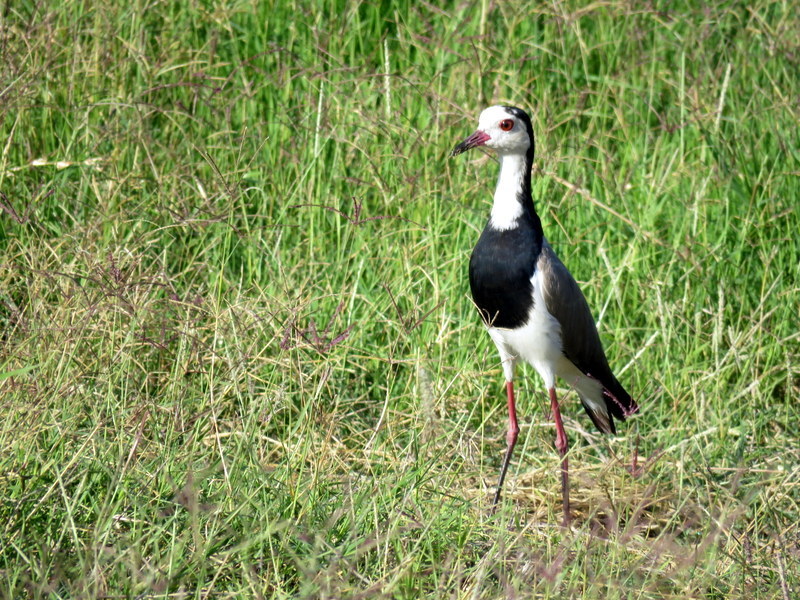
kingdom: Animalia
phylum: Chordata
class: Aves
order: Charadriiformes
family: Charadriidae
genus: Vanellus
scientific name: Vanellus crassirostris
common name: Long-toed lapwing
